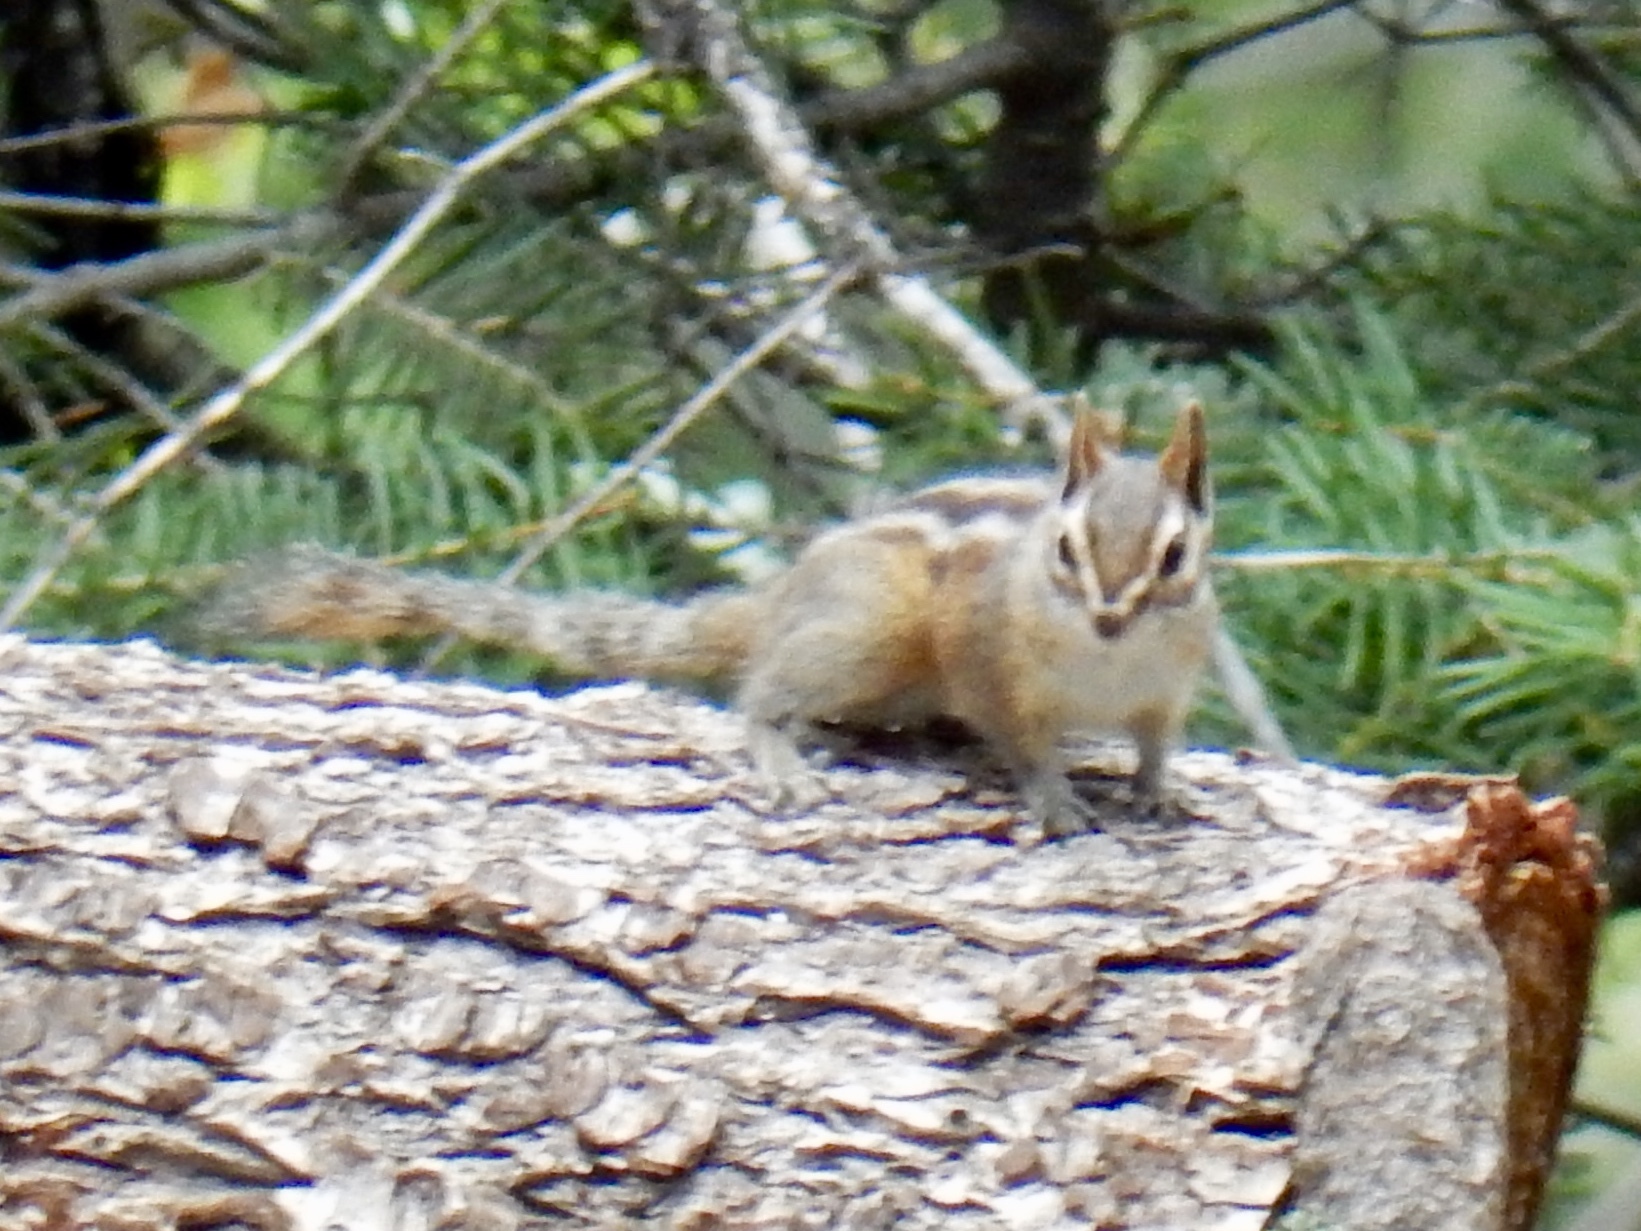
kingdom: Animalia
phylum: Chordata
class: Mammalia
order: Rodentia
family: Sciuridae
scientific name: Sciuridae
